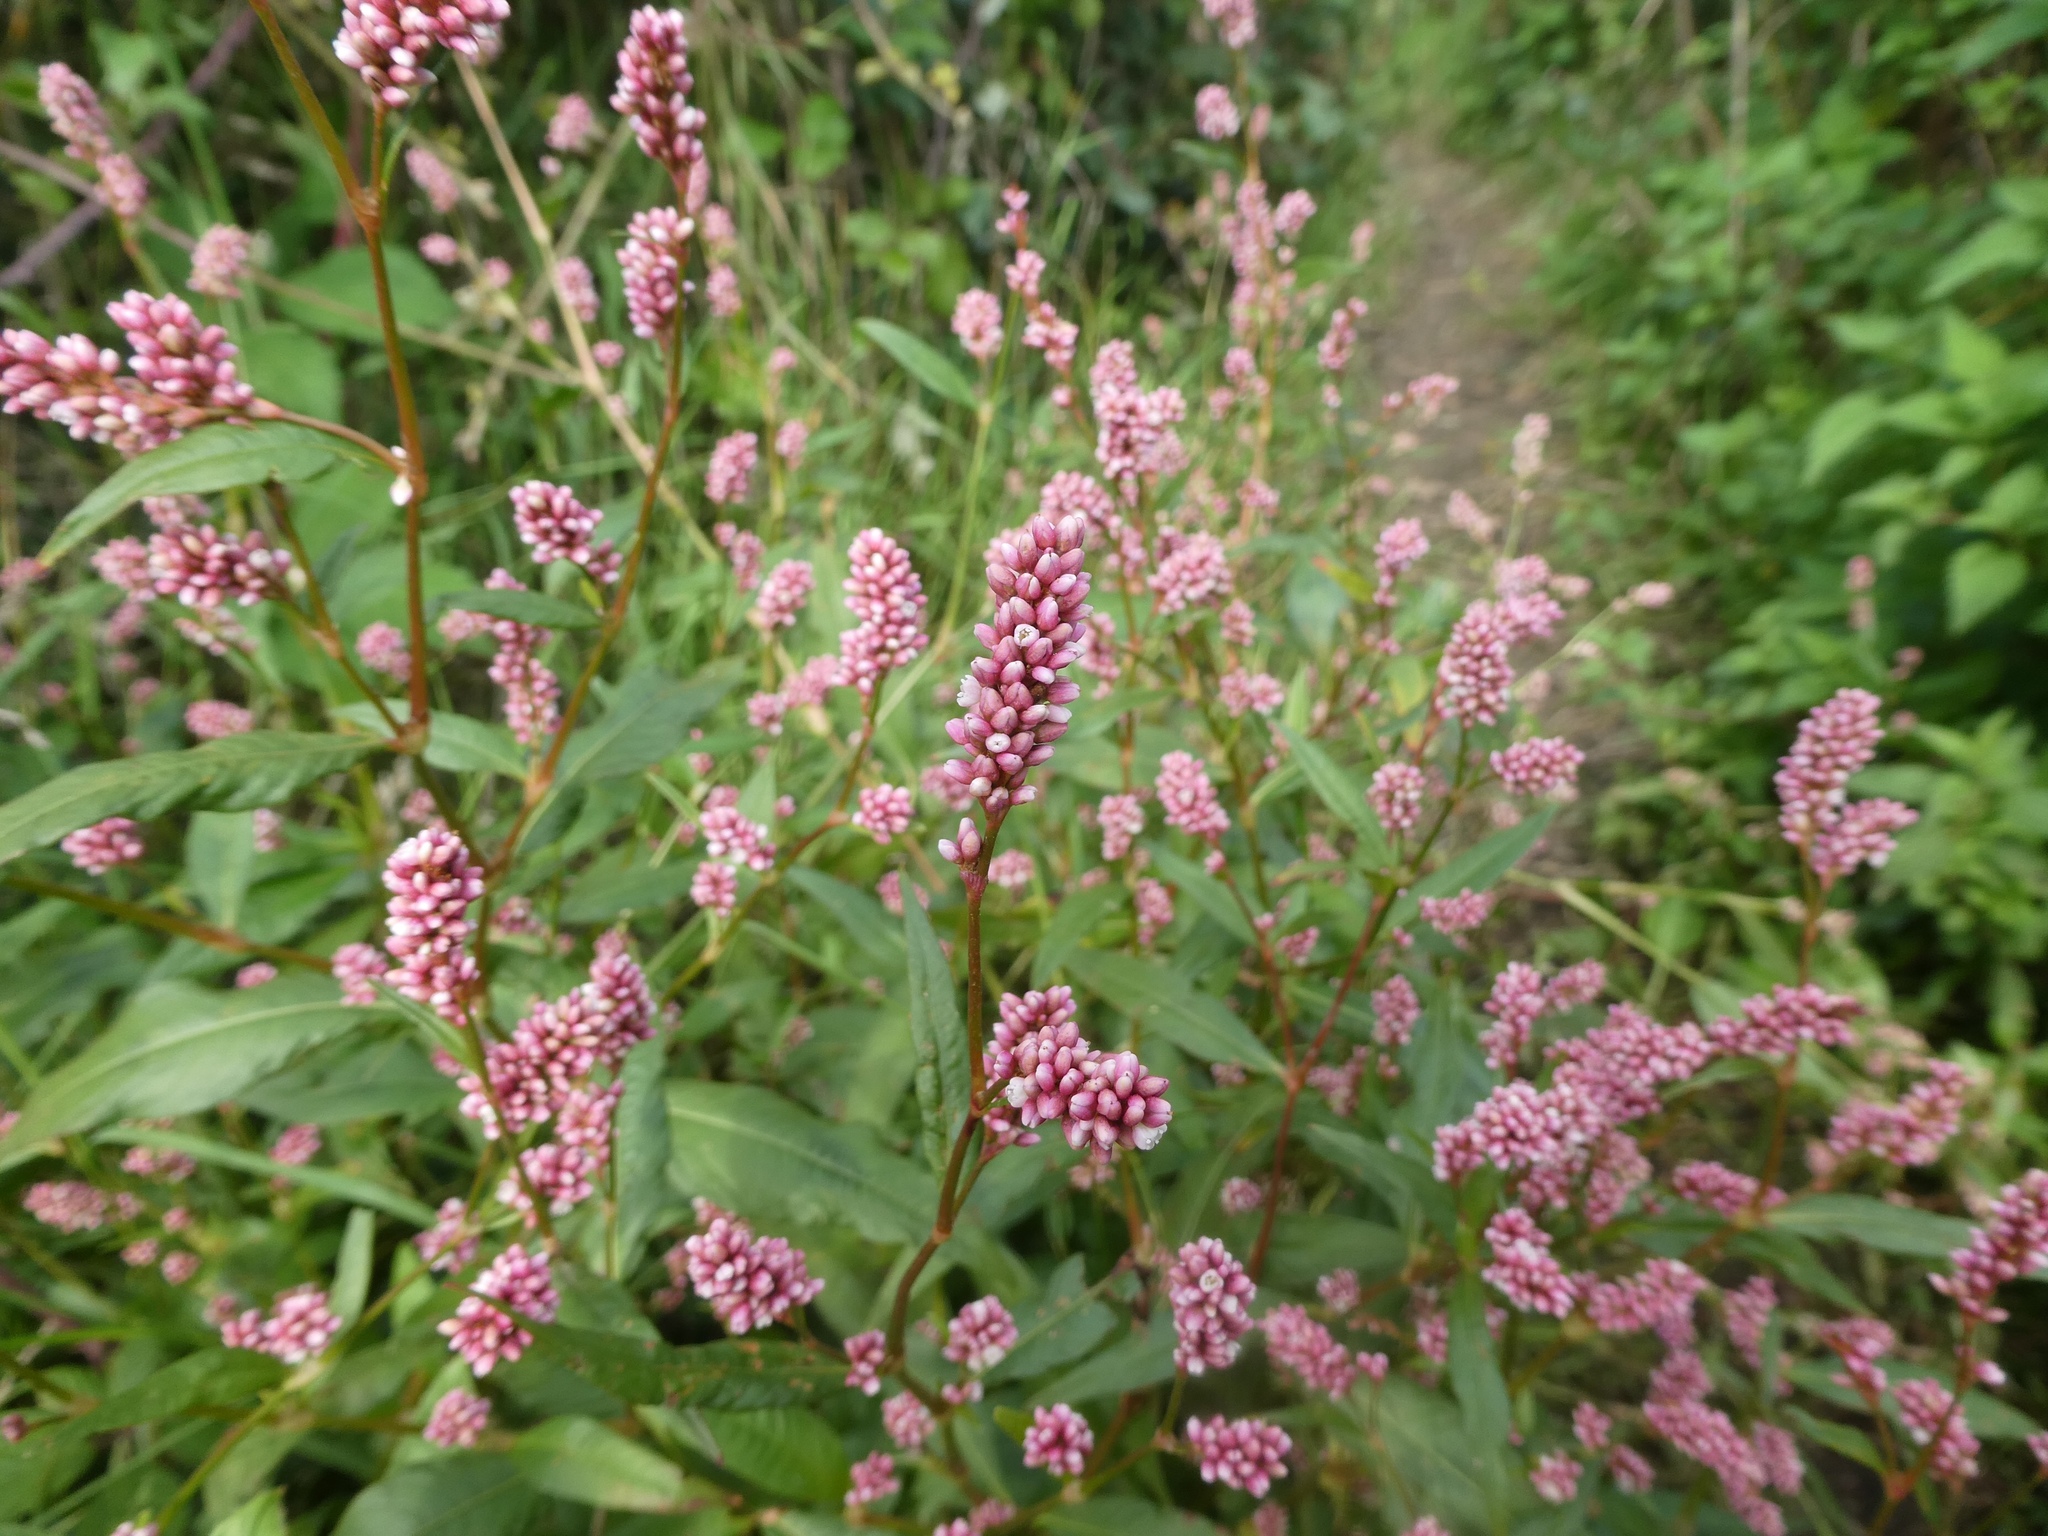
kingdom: Plantae
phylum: Tracheophyta
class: Magnoliopsida
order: Caryophyllales
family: Polygonaceae
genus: Persicaria
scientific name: Persicaria maculosa
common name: Redshank
